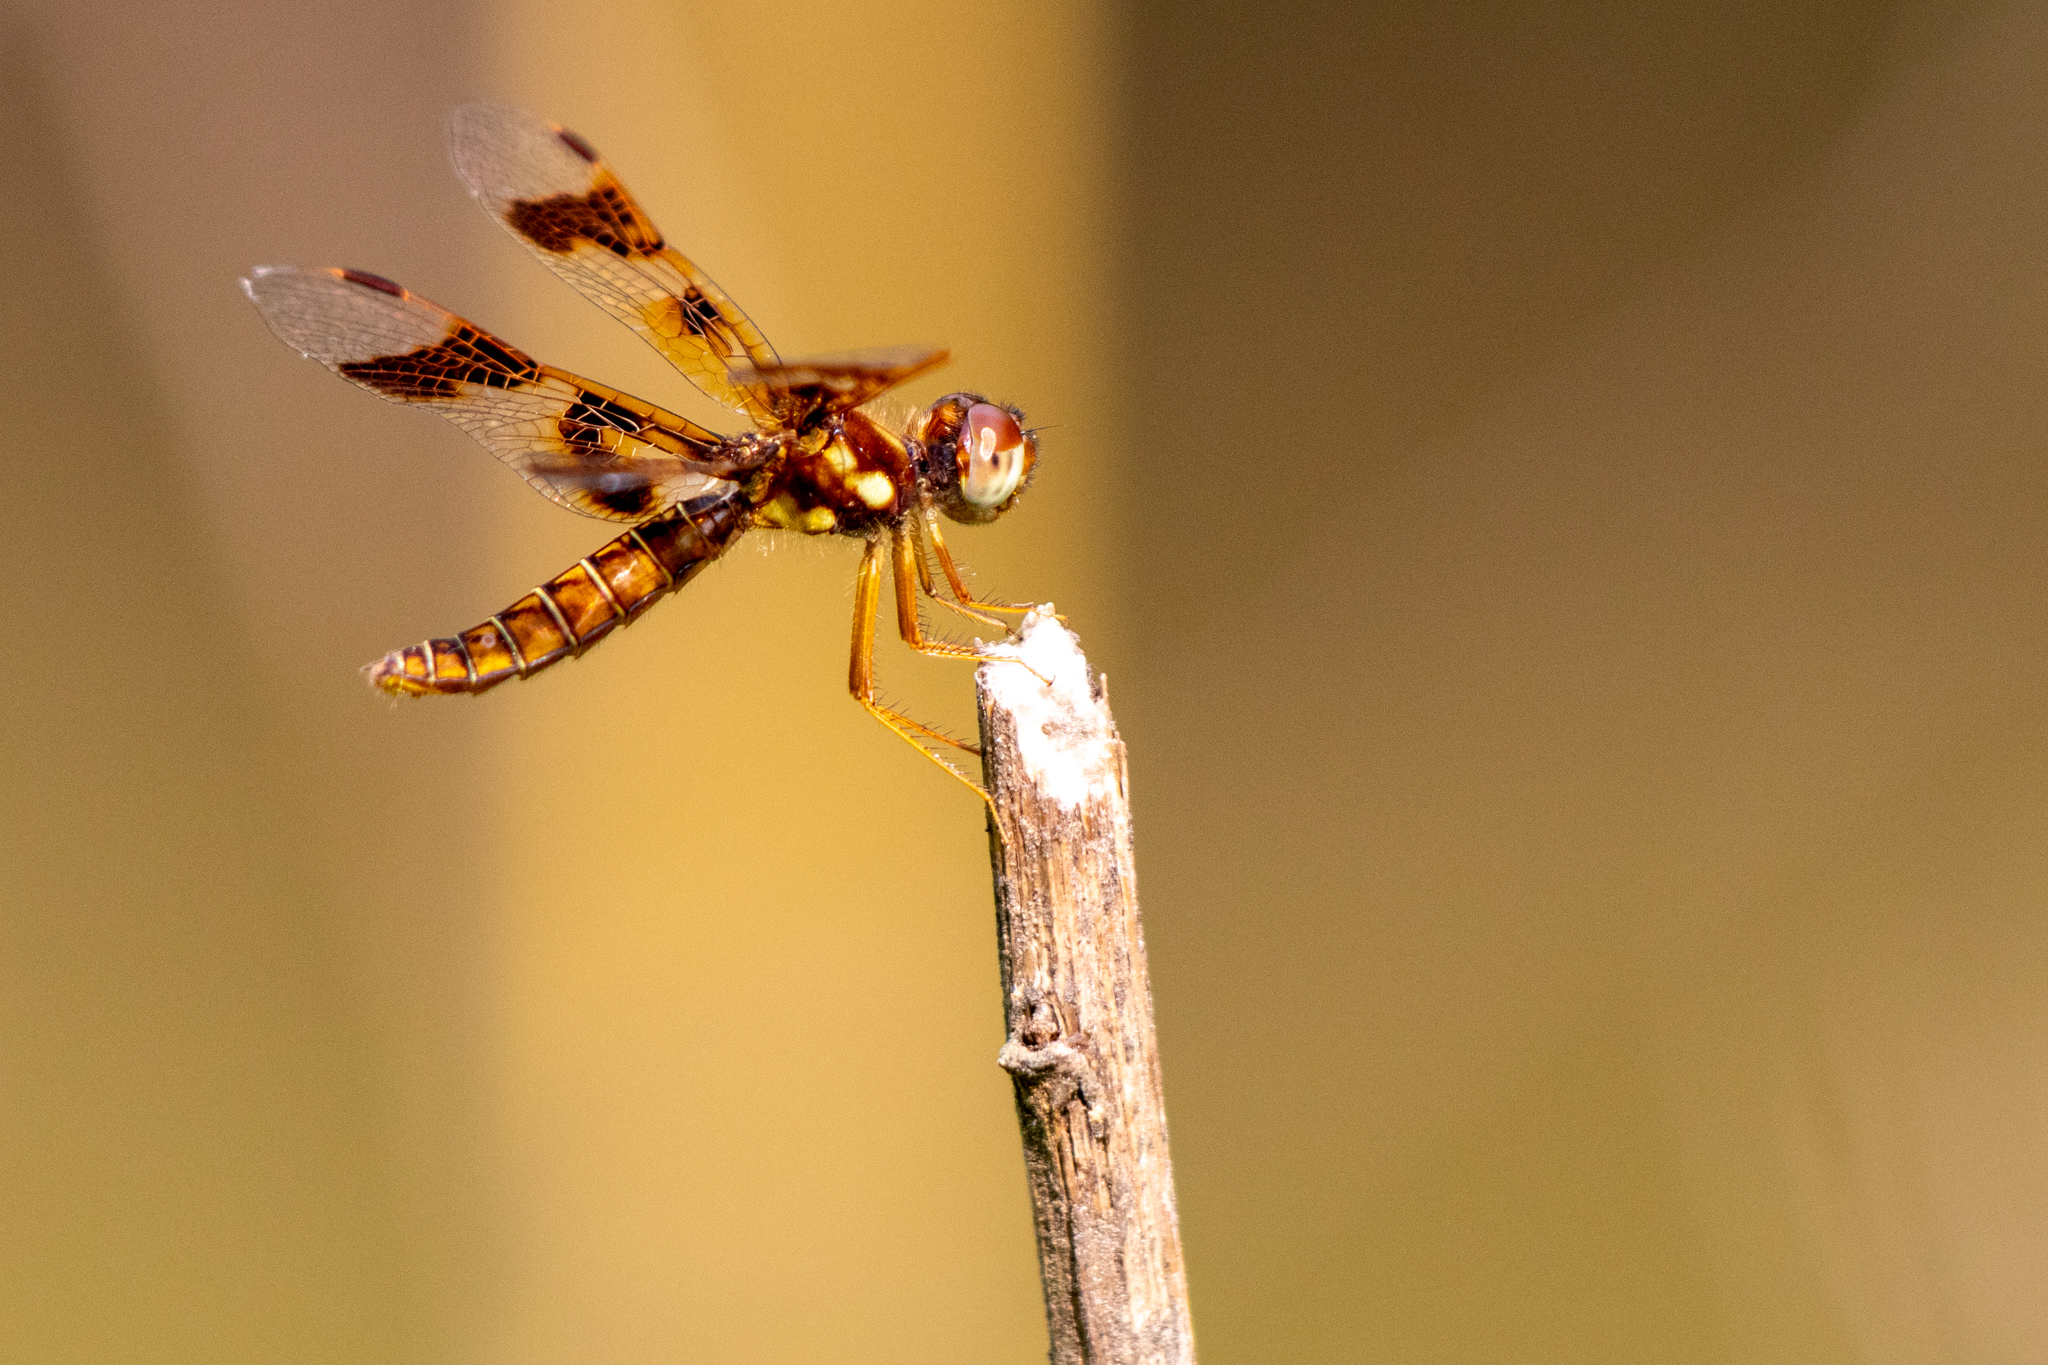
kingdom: Animalia
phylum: Arthropoda
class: Insecta
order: Odonata
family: Libellulidae
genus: Perithemis
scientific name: Perithemis tenera
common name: Eastern amberwing
